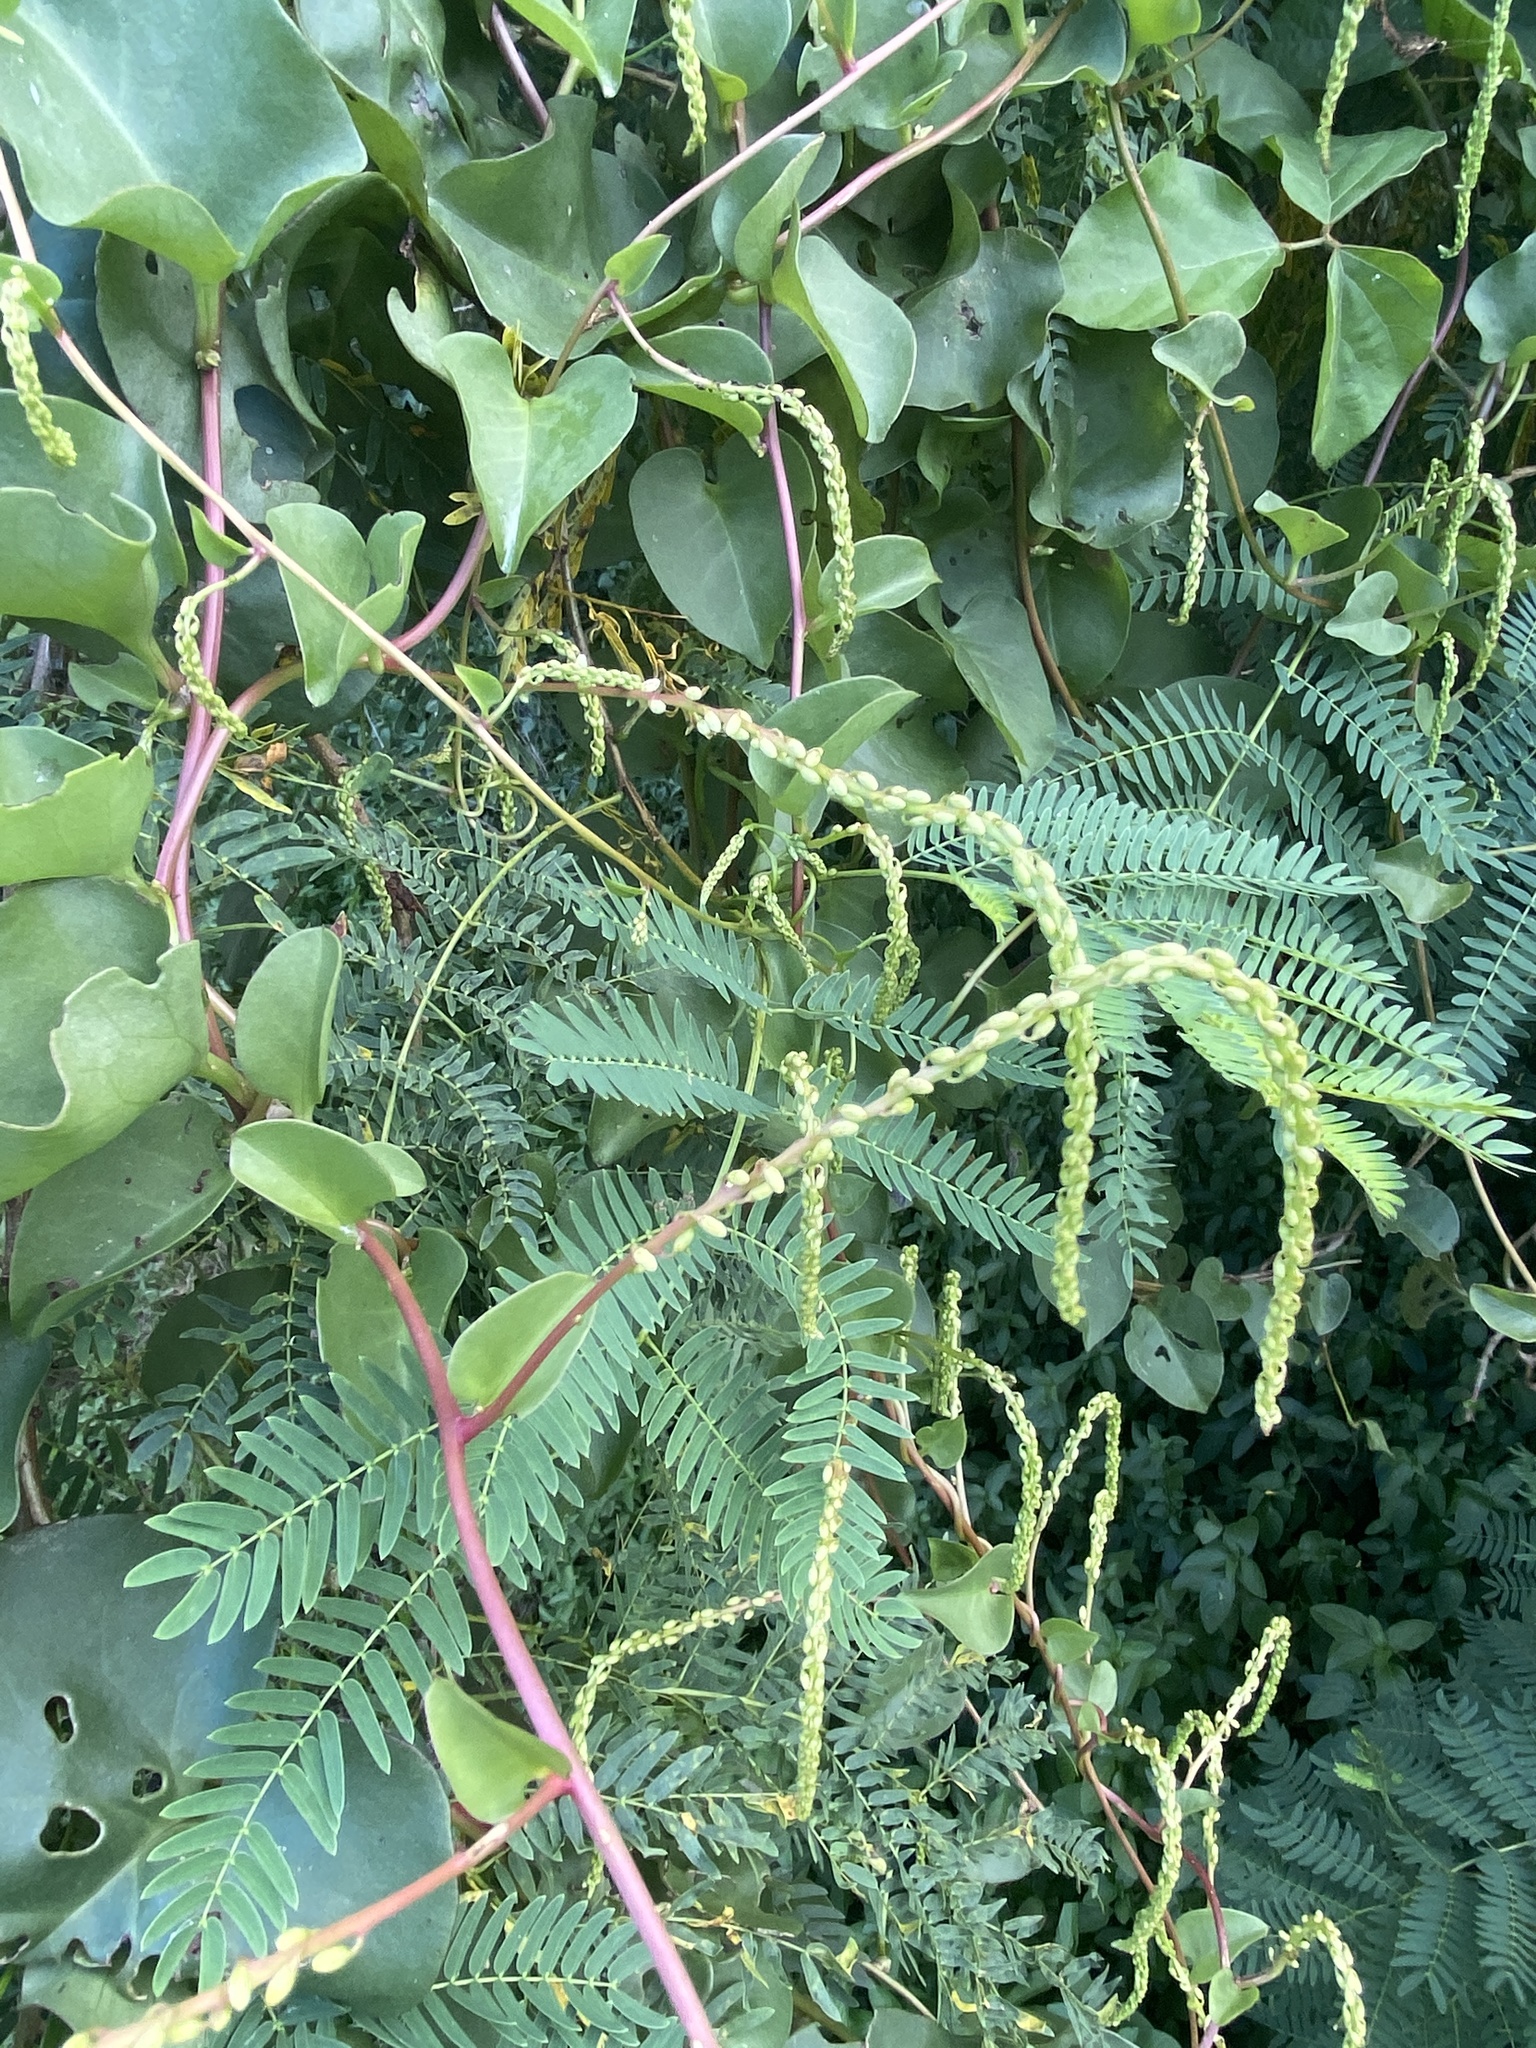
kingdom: Plantae
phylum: Tracheophyta
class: Magnoliopsida
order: Caryophyllales
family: Basellaceae
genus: Anredera
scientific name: Anredera cordifolia
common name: Heartleaf madeiravine
